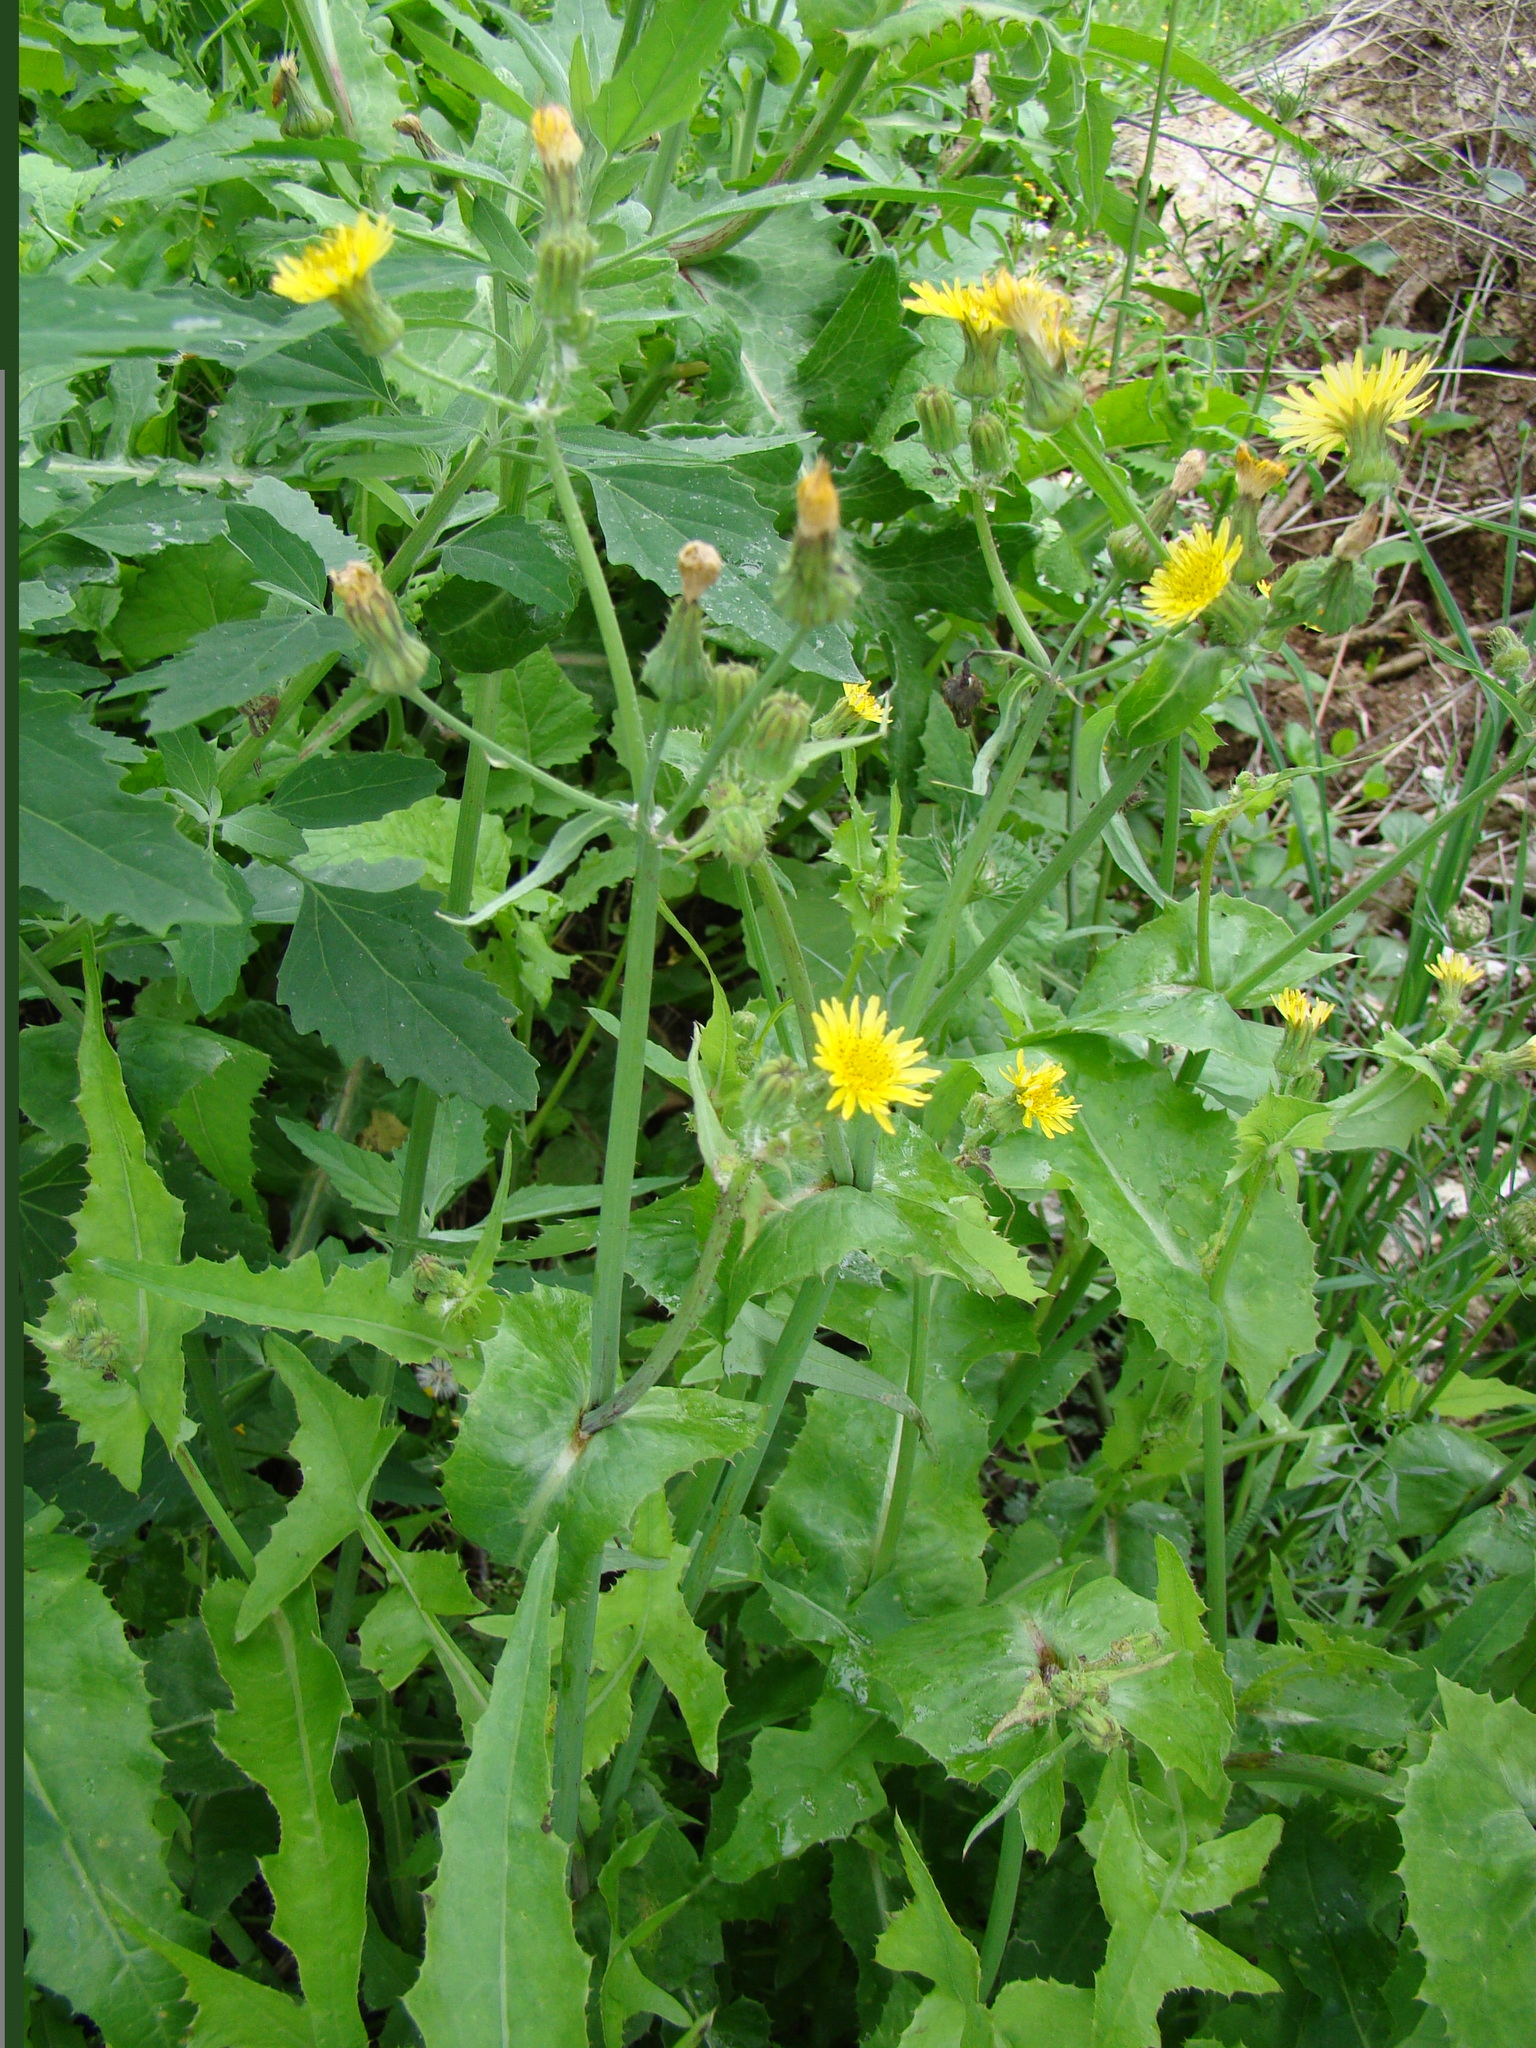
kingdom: Plantae
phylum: Tracheophyta
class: Magnoliopsida
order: Asterales
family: Asteraceae
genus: Sonchus
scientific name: Sonchus oleraceus
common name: Common sowthistle
